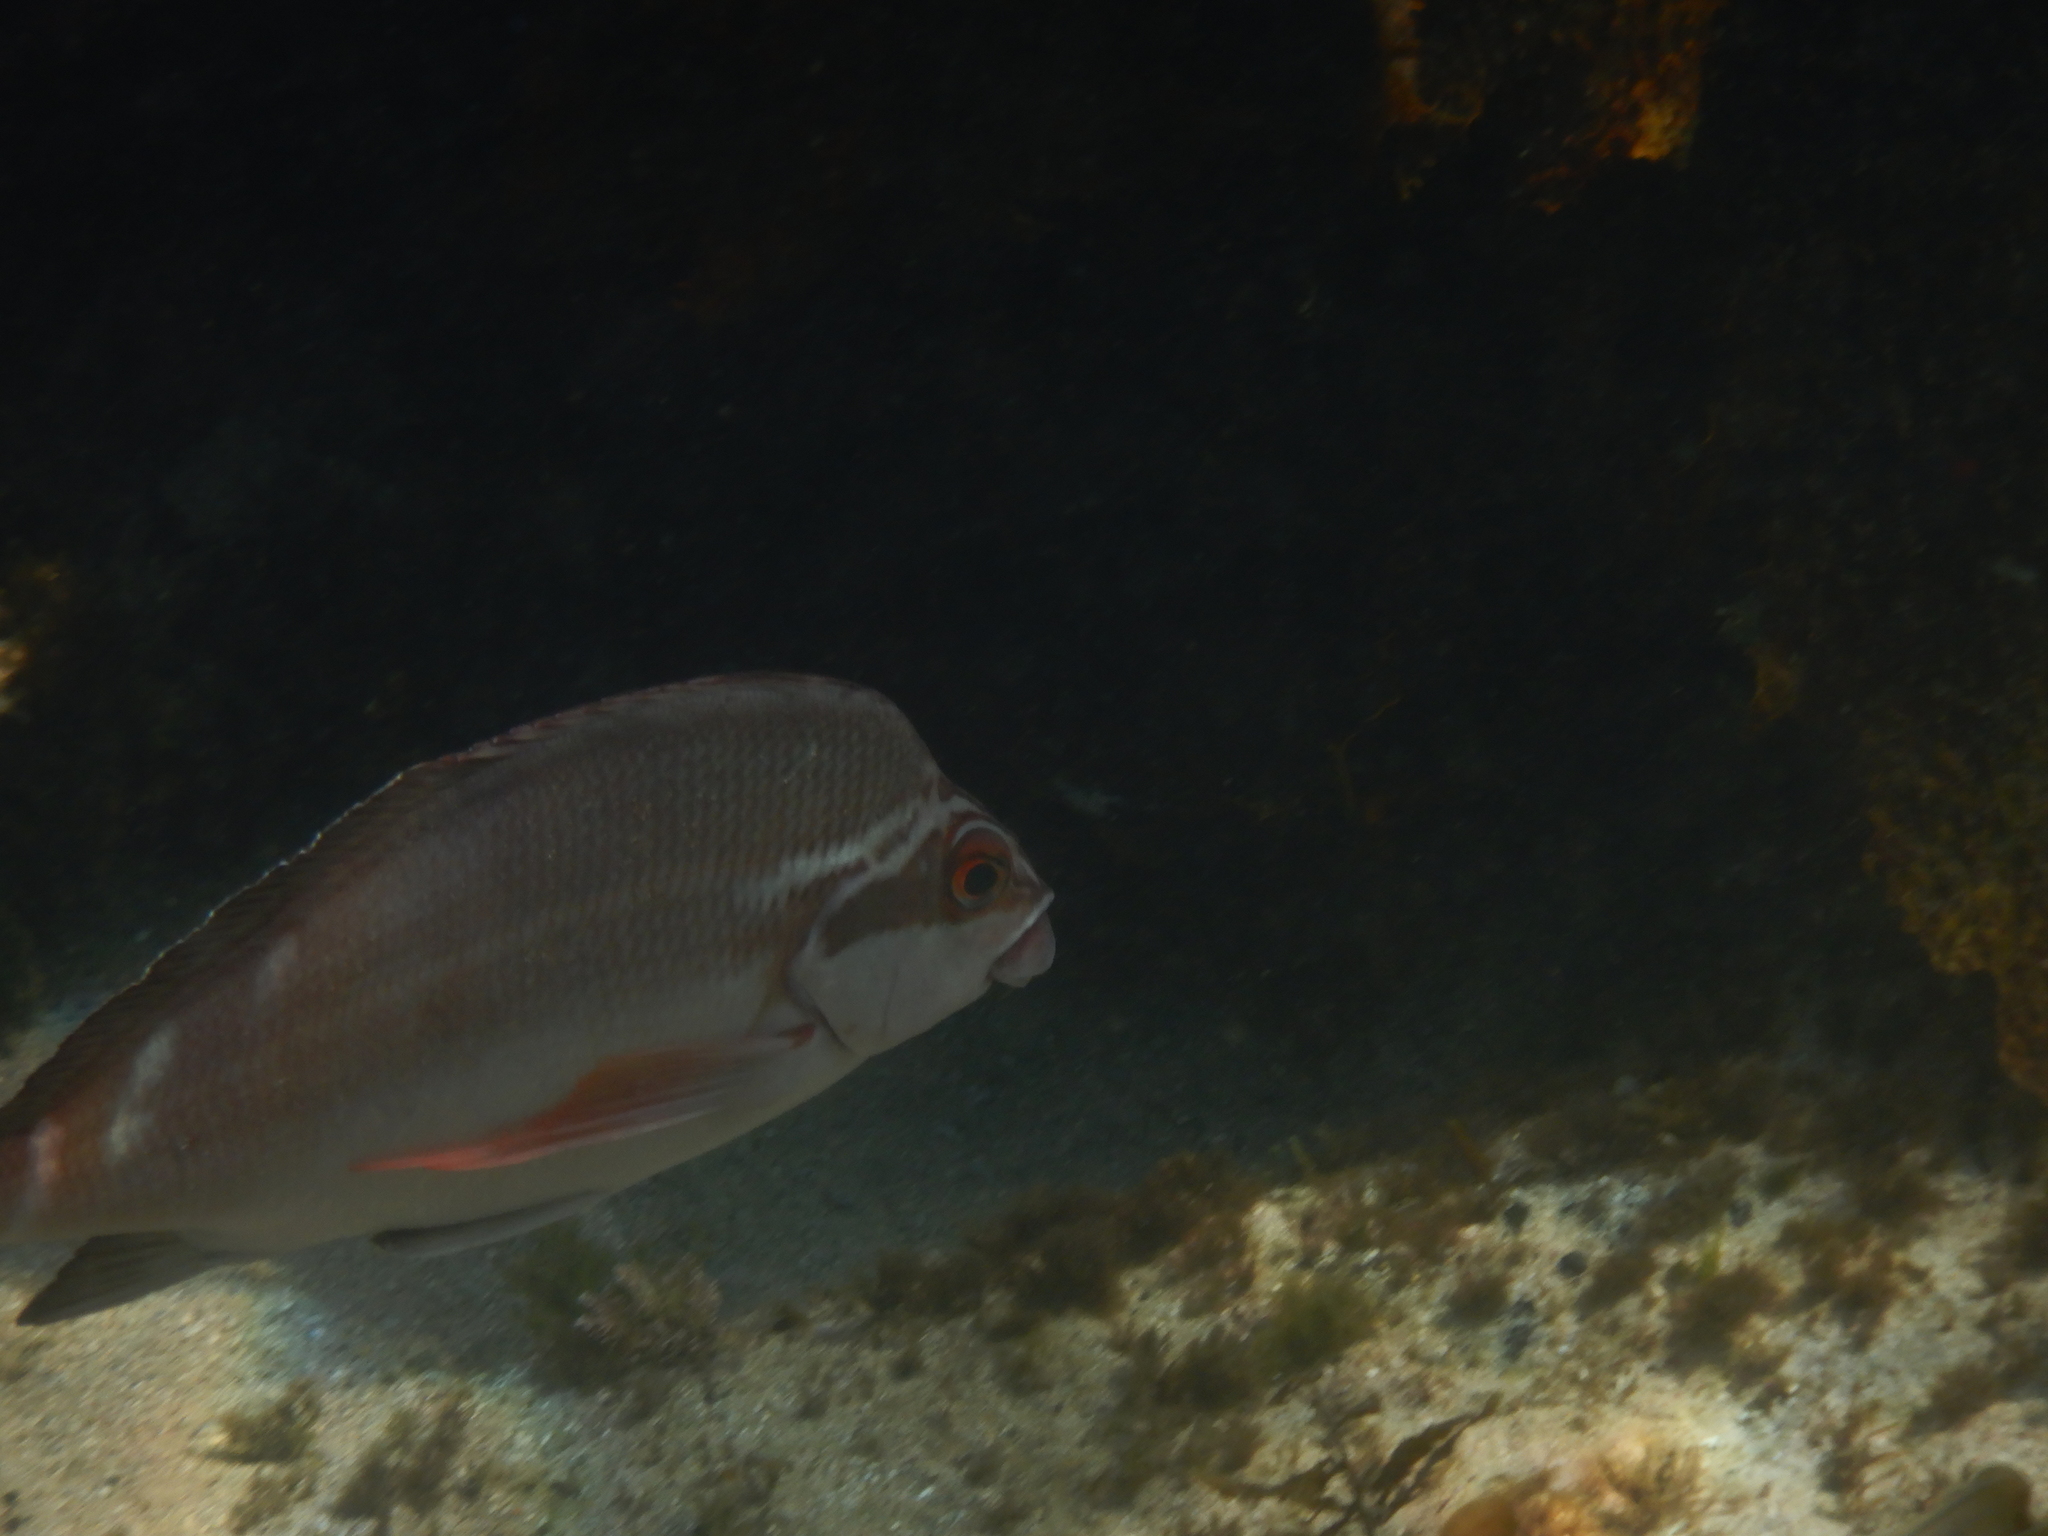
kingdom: Animalia
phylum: Chordata
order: Perciformes
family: Latridae
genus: Morwong
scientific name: Morwong fuscus
